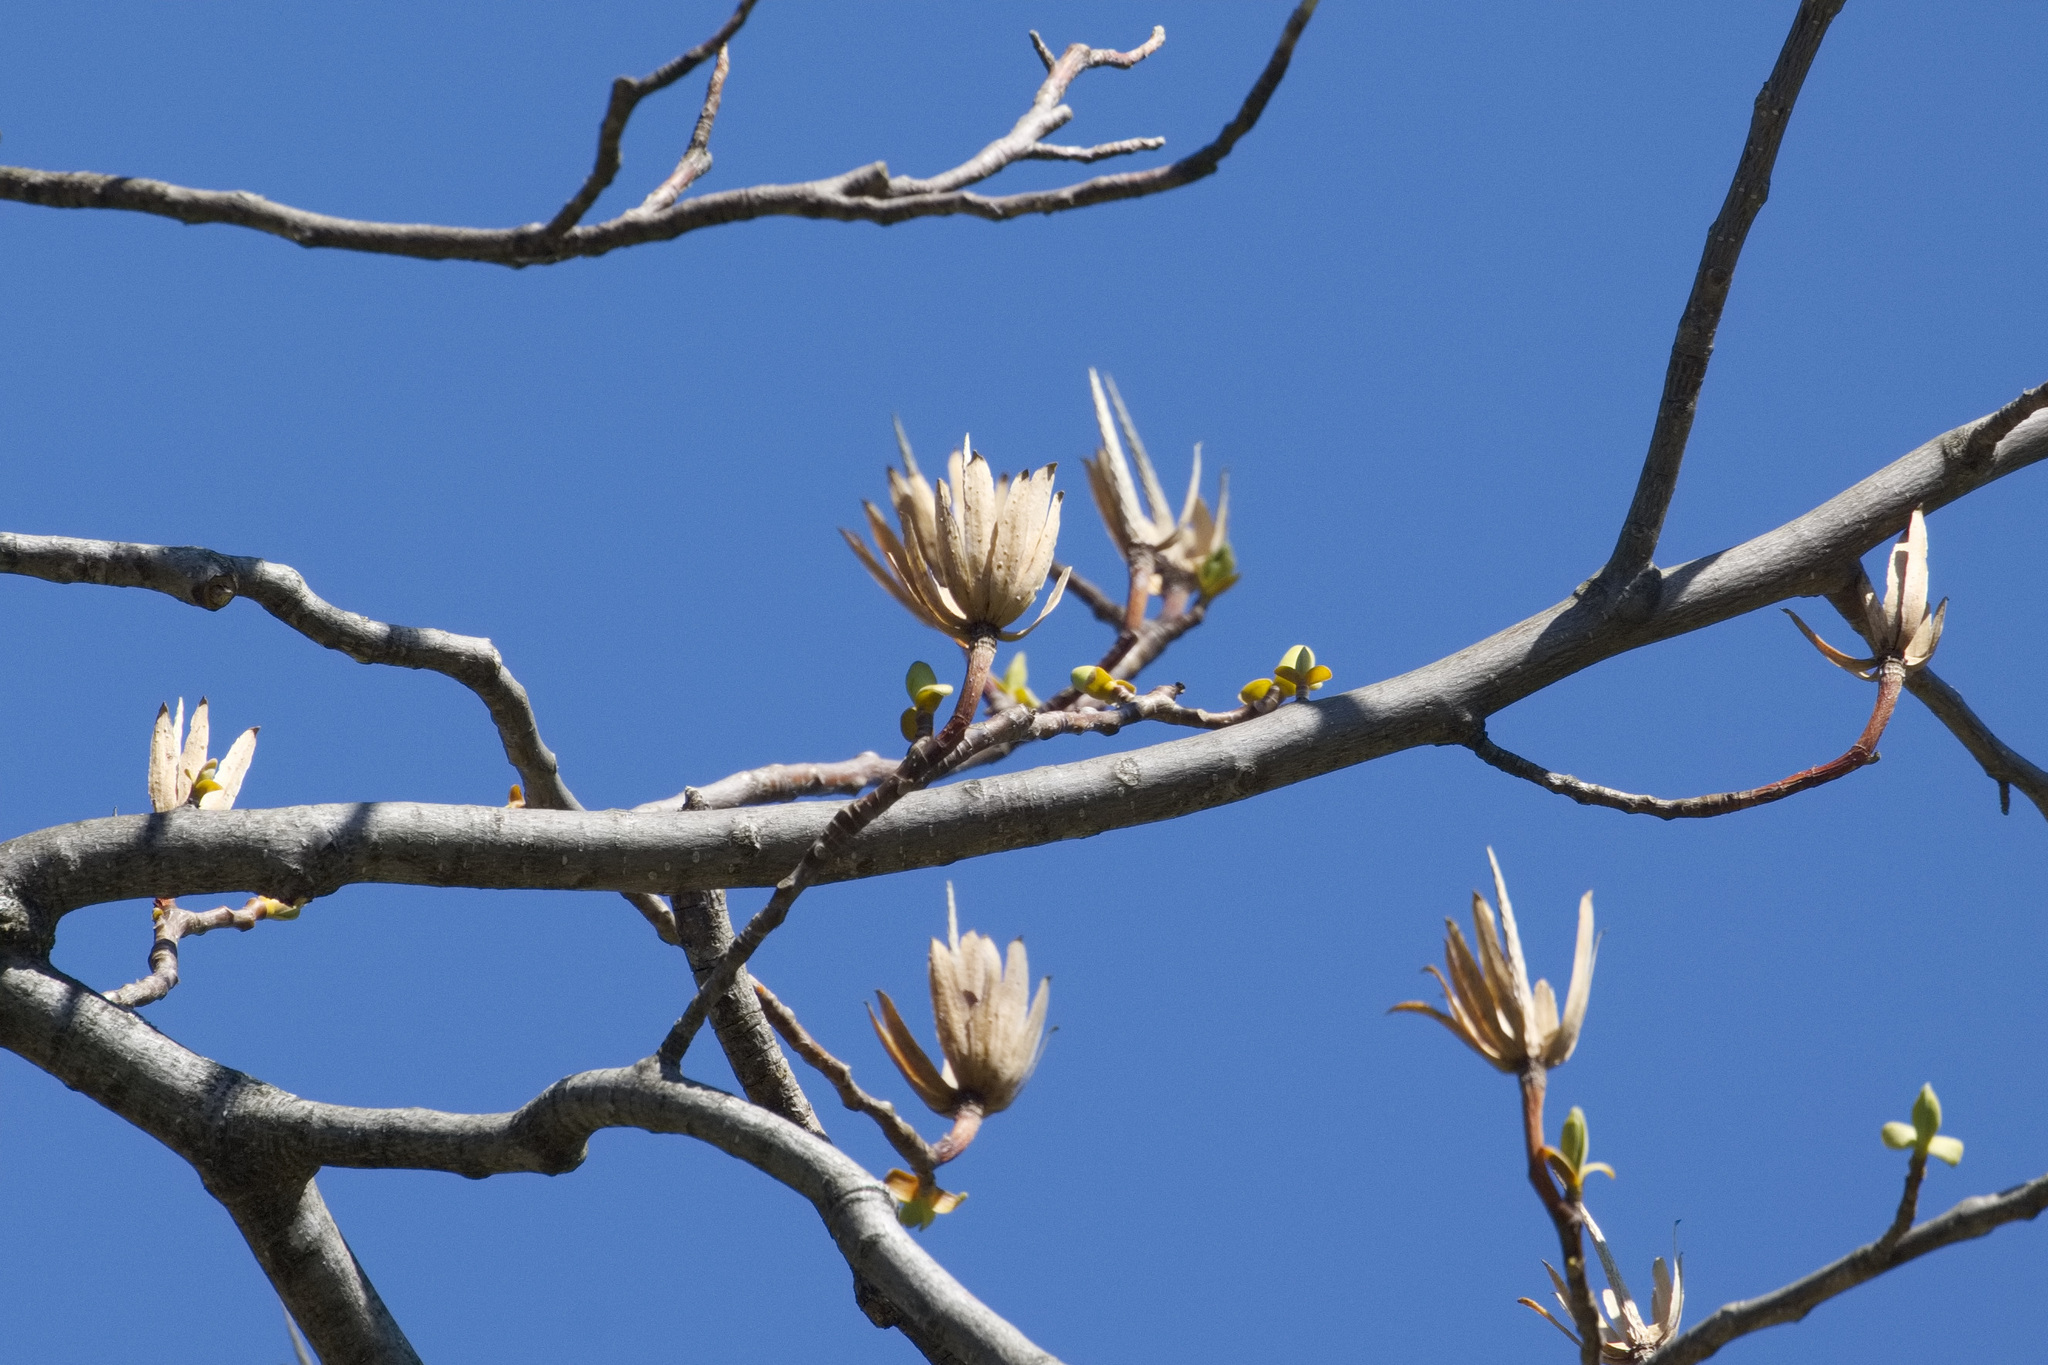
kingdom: Plantae
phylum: Tracheophyta
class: Magnoliopsida
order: Magnoliales
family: Magnoliaceae
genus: Liriodendron
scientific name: Liriodendron tulipifera
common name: Tulip tree
